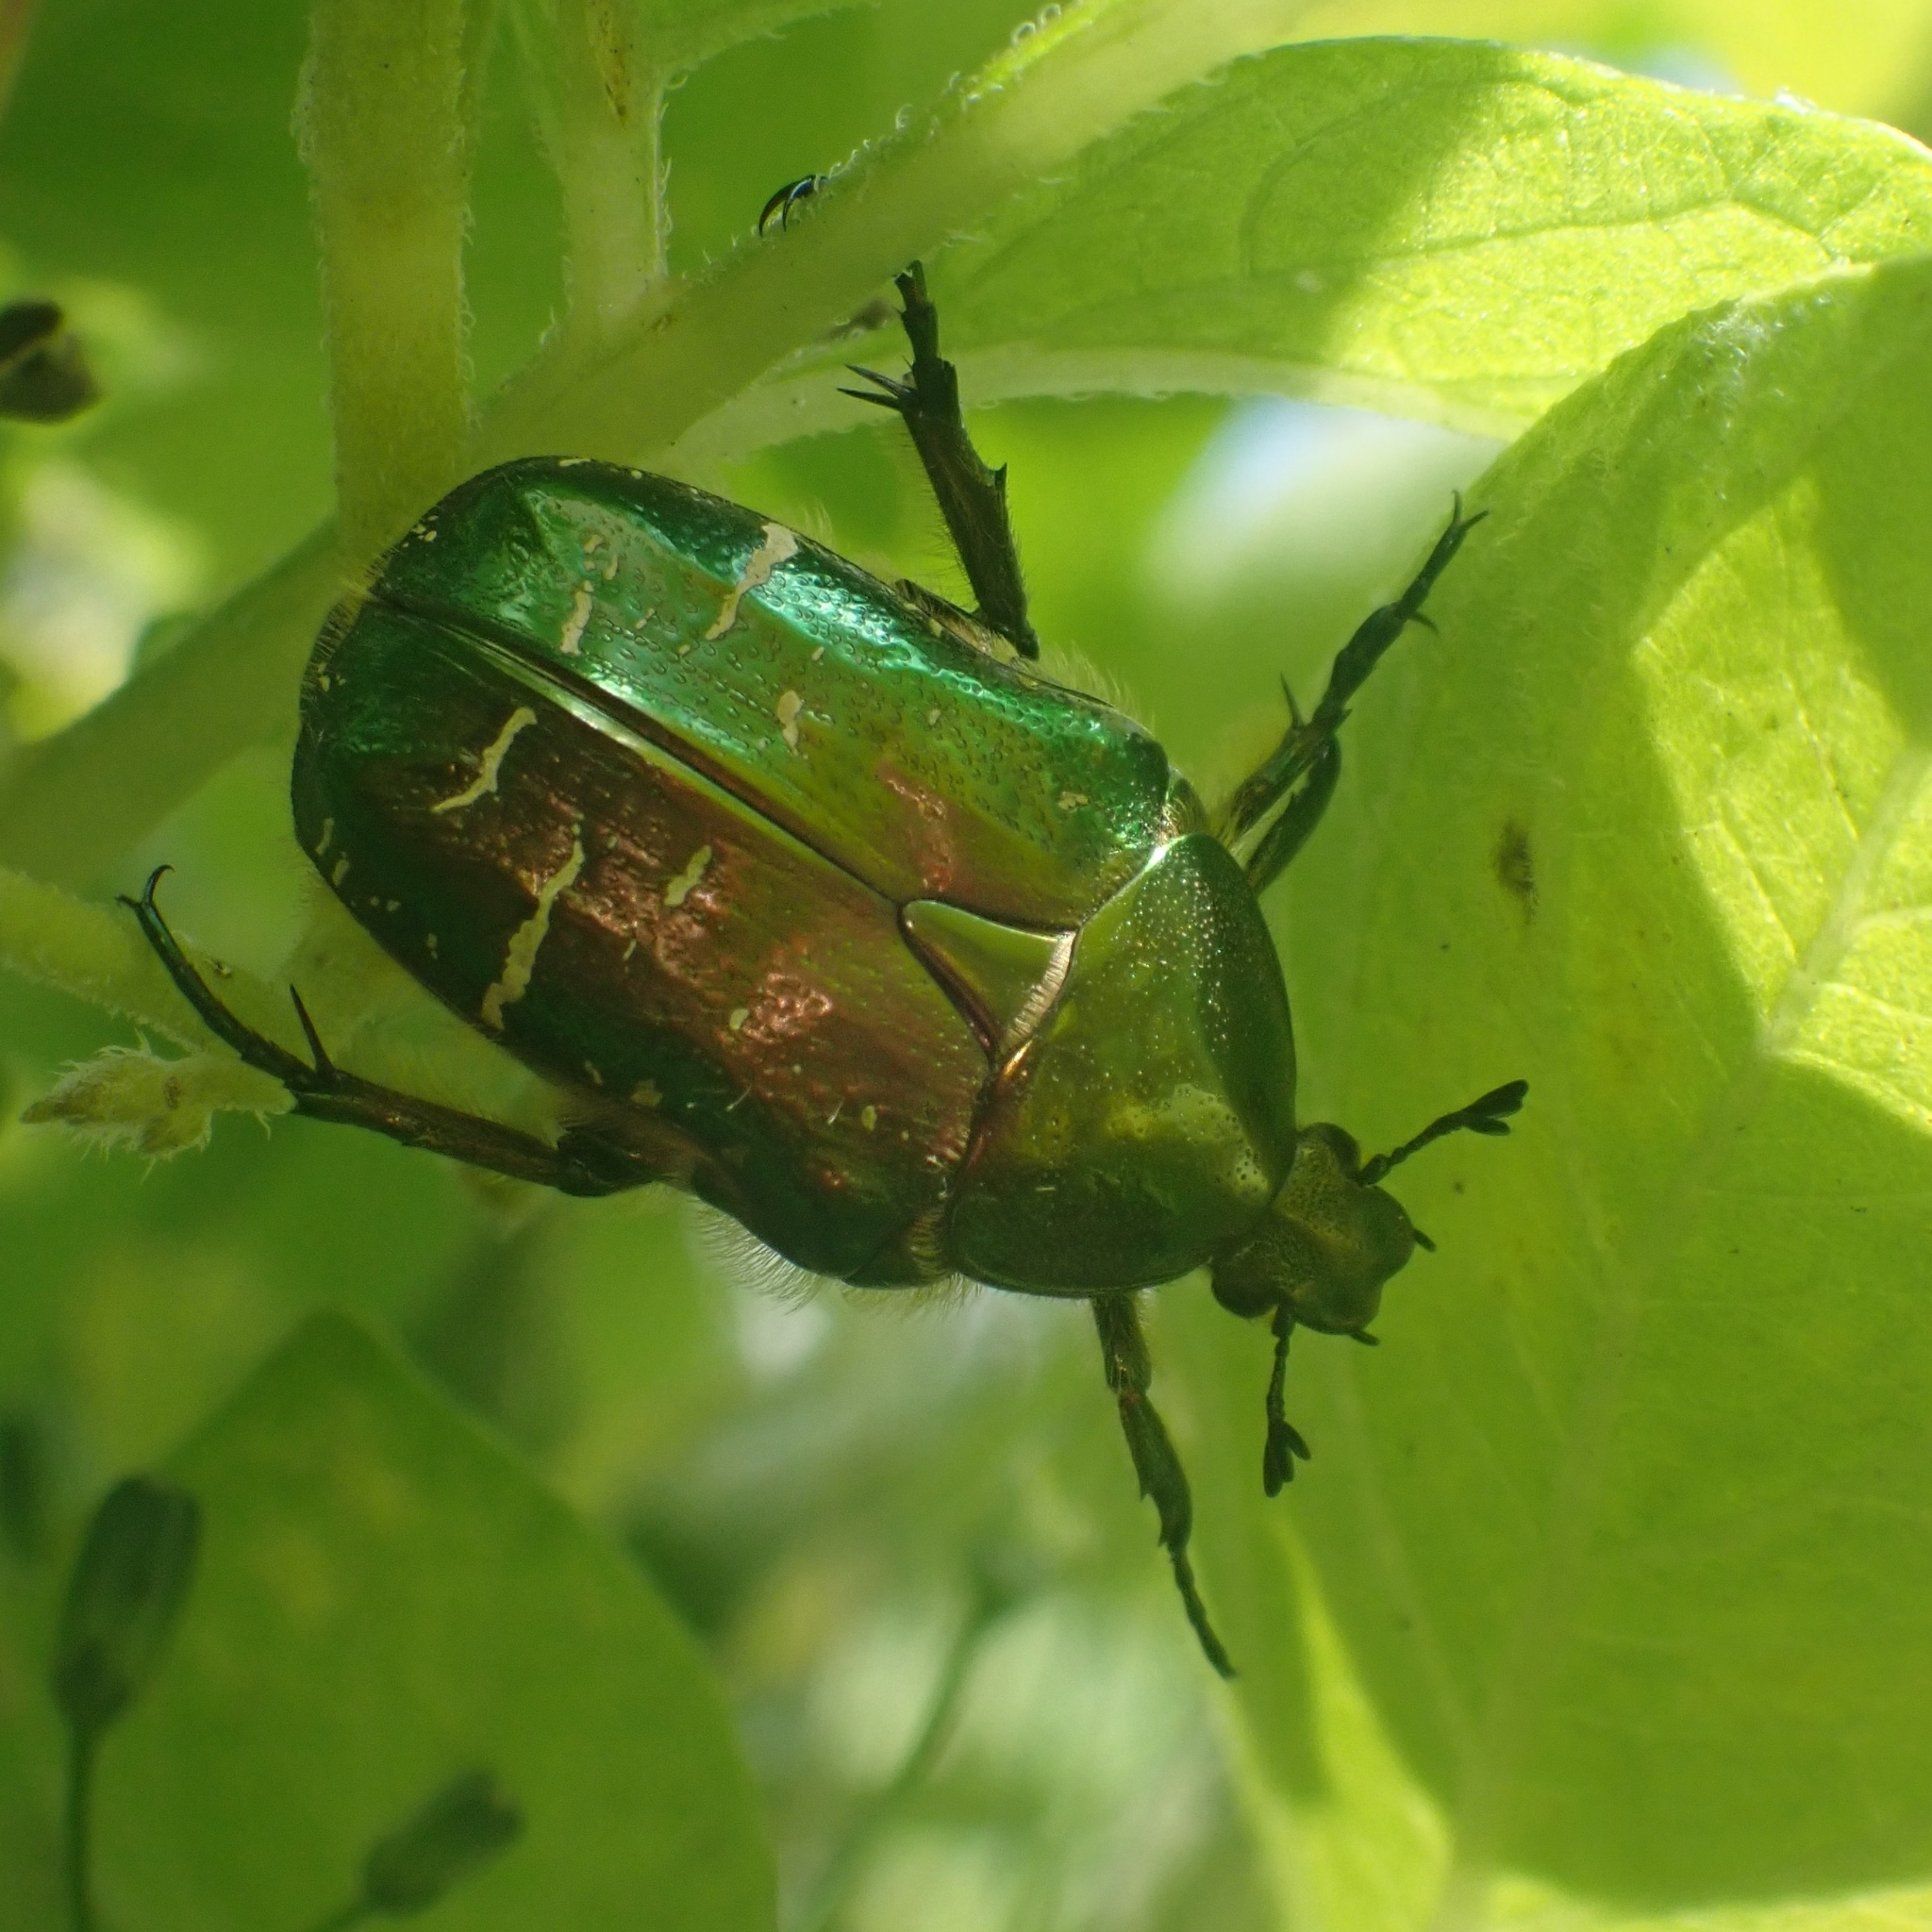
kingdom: Animalia
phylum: Arthropoda
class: Insecta
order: Coleoptera
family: Scarabaeidae
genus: Cetonia
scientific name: Cetonia aurata
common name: Rose chafer
